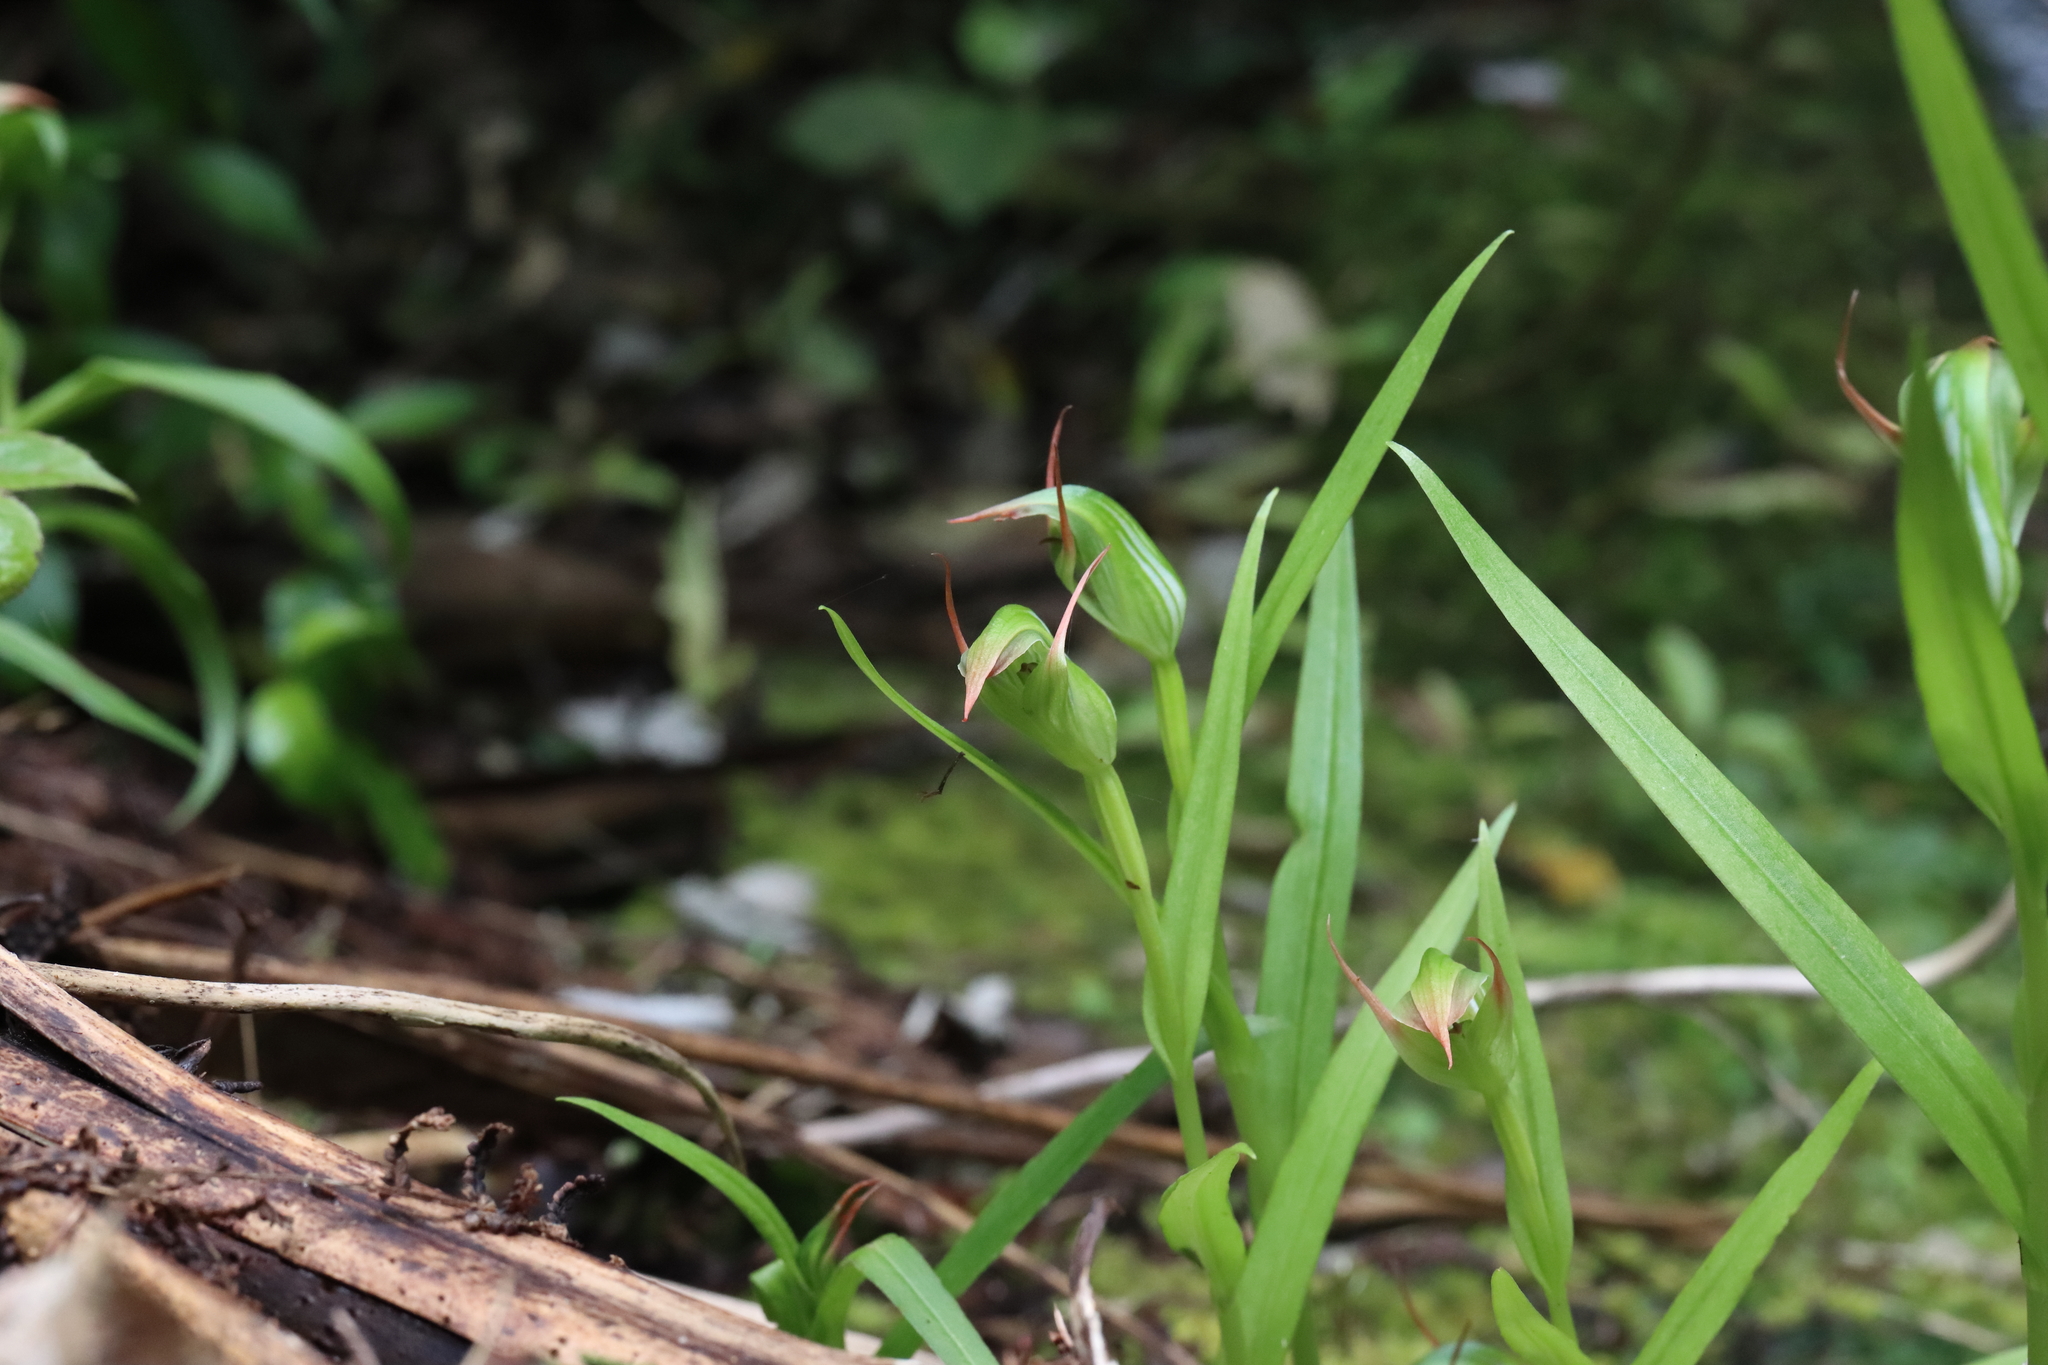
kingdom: Plantae
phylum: Tracheophyta
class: Liliopsida
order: Asparagales
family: Orchidaceae
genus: Pterostylis
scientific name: Pterostylis montana
